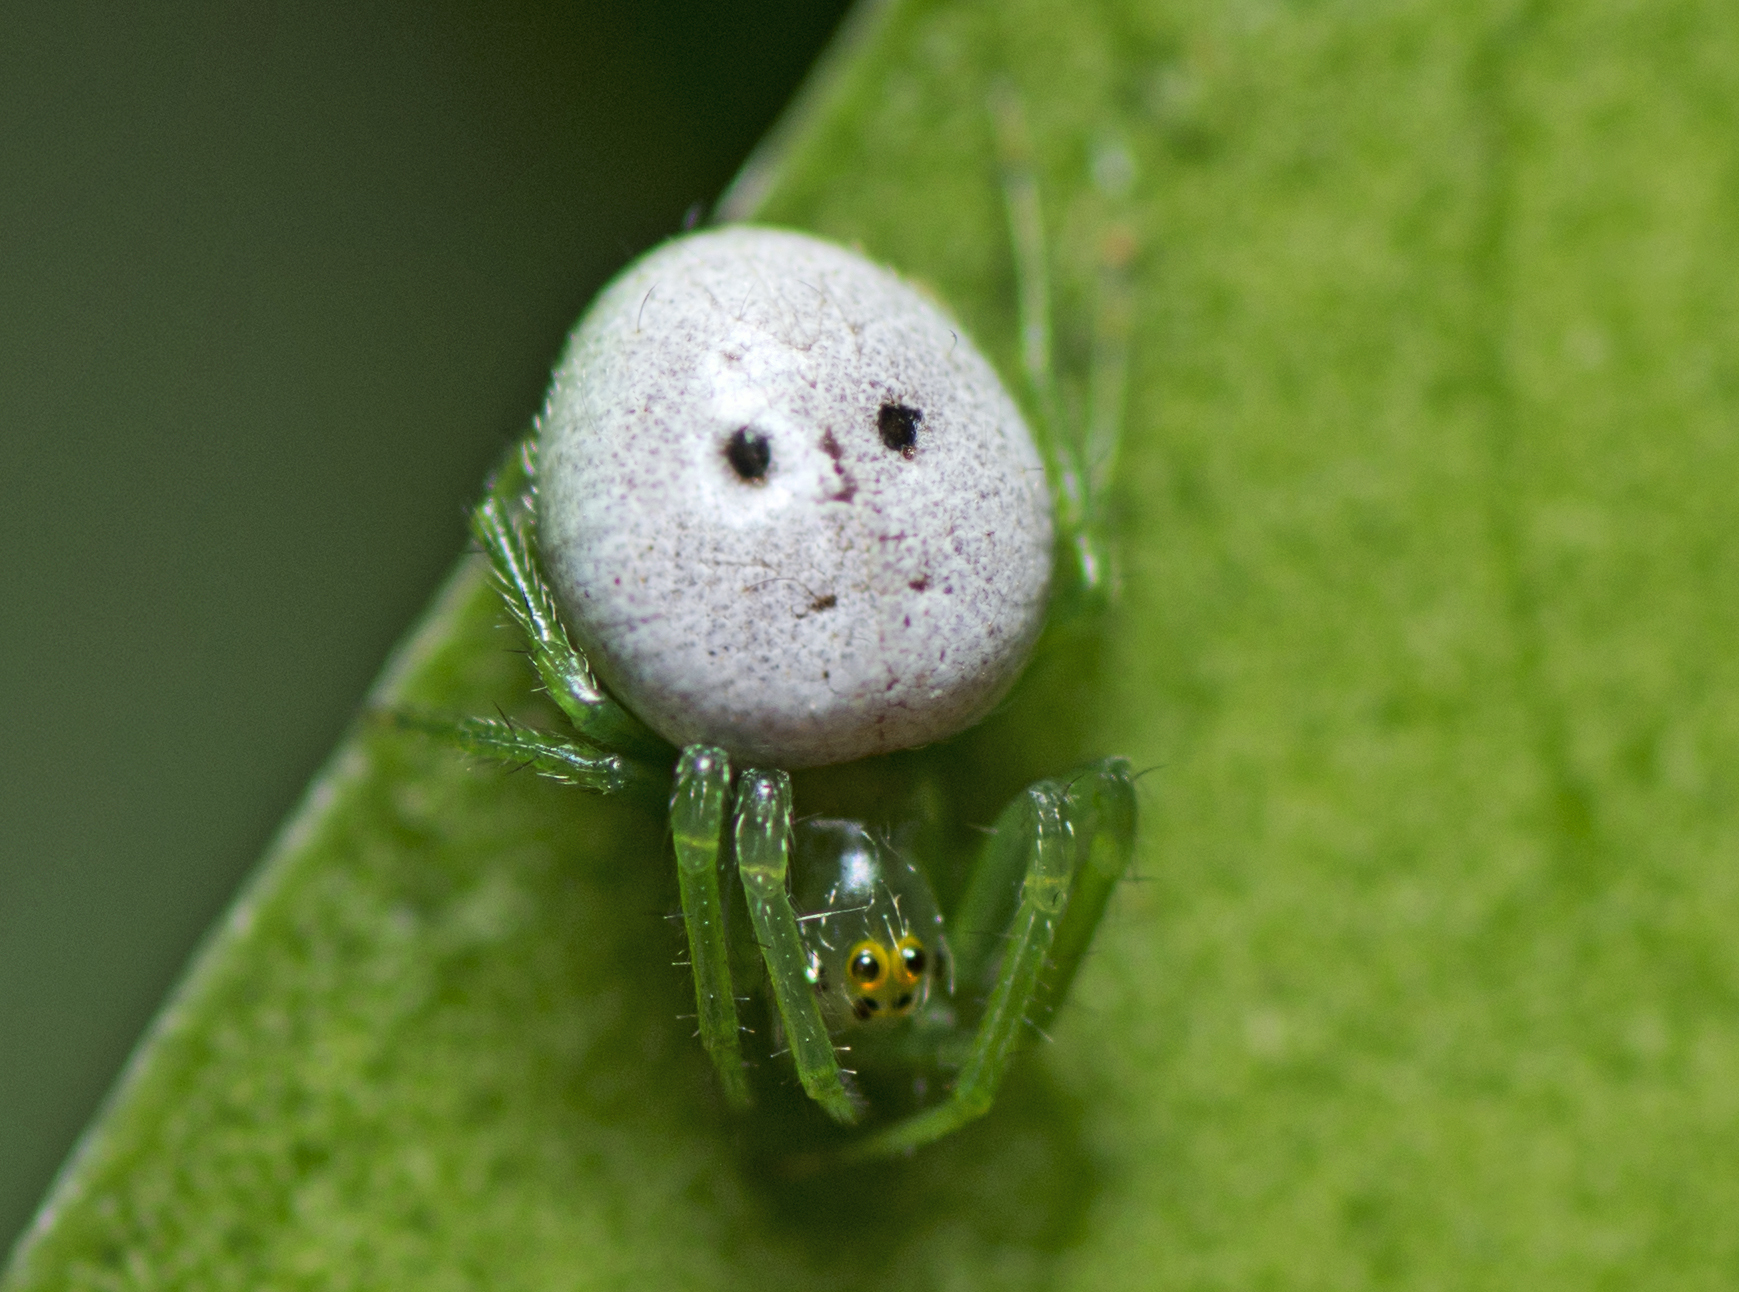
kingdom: Animalia
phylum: Arthropoda
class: Arachnida
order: Araneae
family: Araneidae
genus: Araneus
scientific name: Araneus transversus
